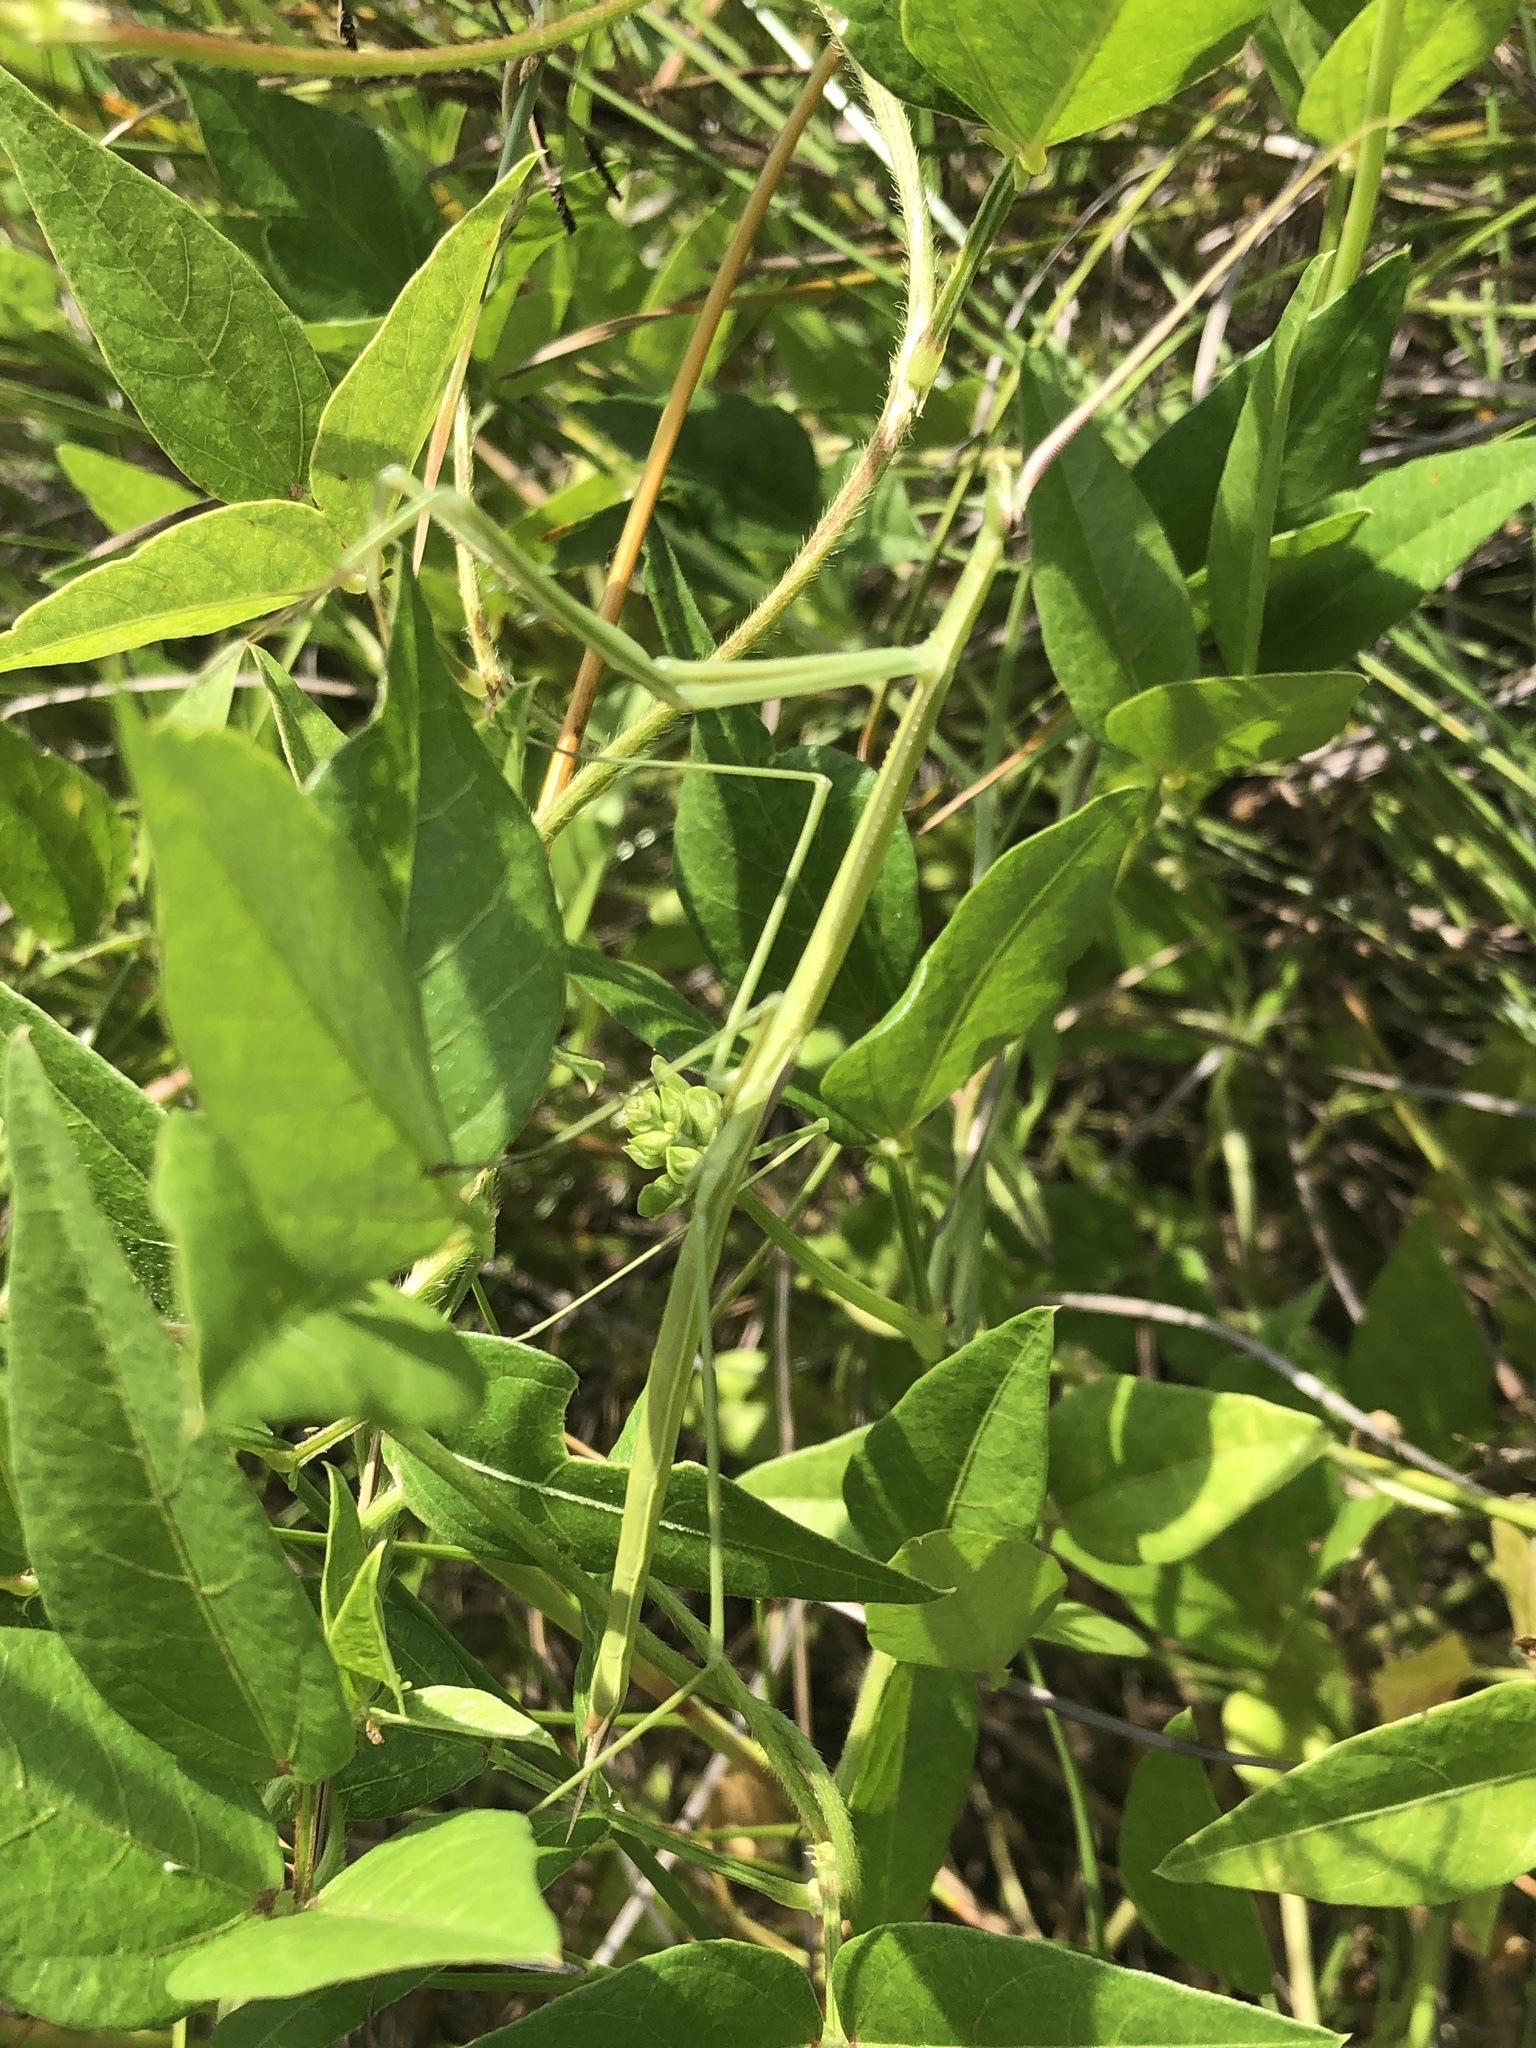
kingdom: Animalia
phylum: Arthropoda
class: Insecta
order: Mantodea
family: Coptopterygidae
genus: Brunneria
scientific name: Brunneria borealis
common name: Mantis
